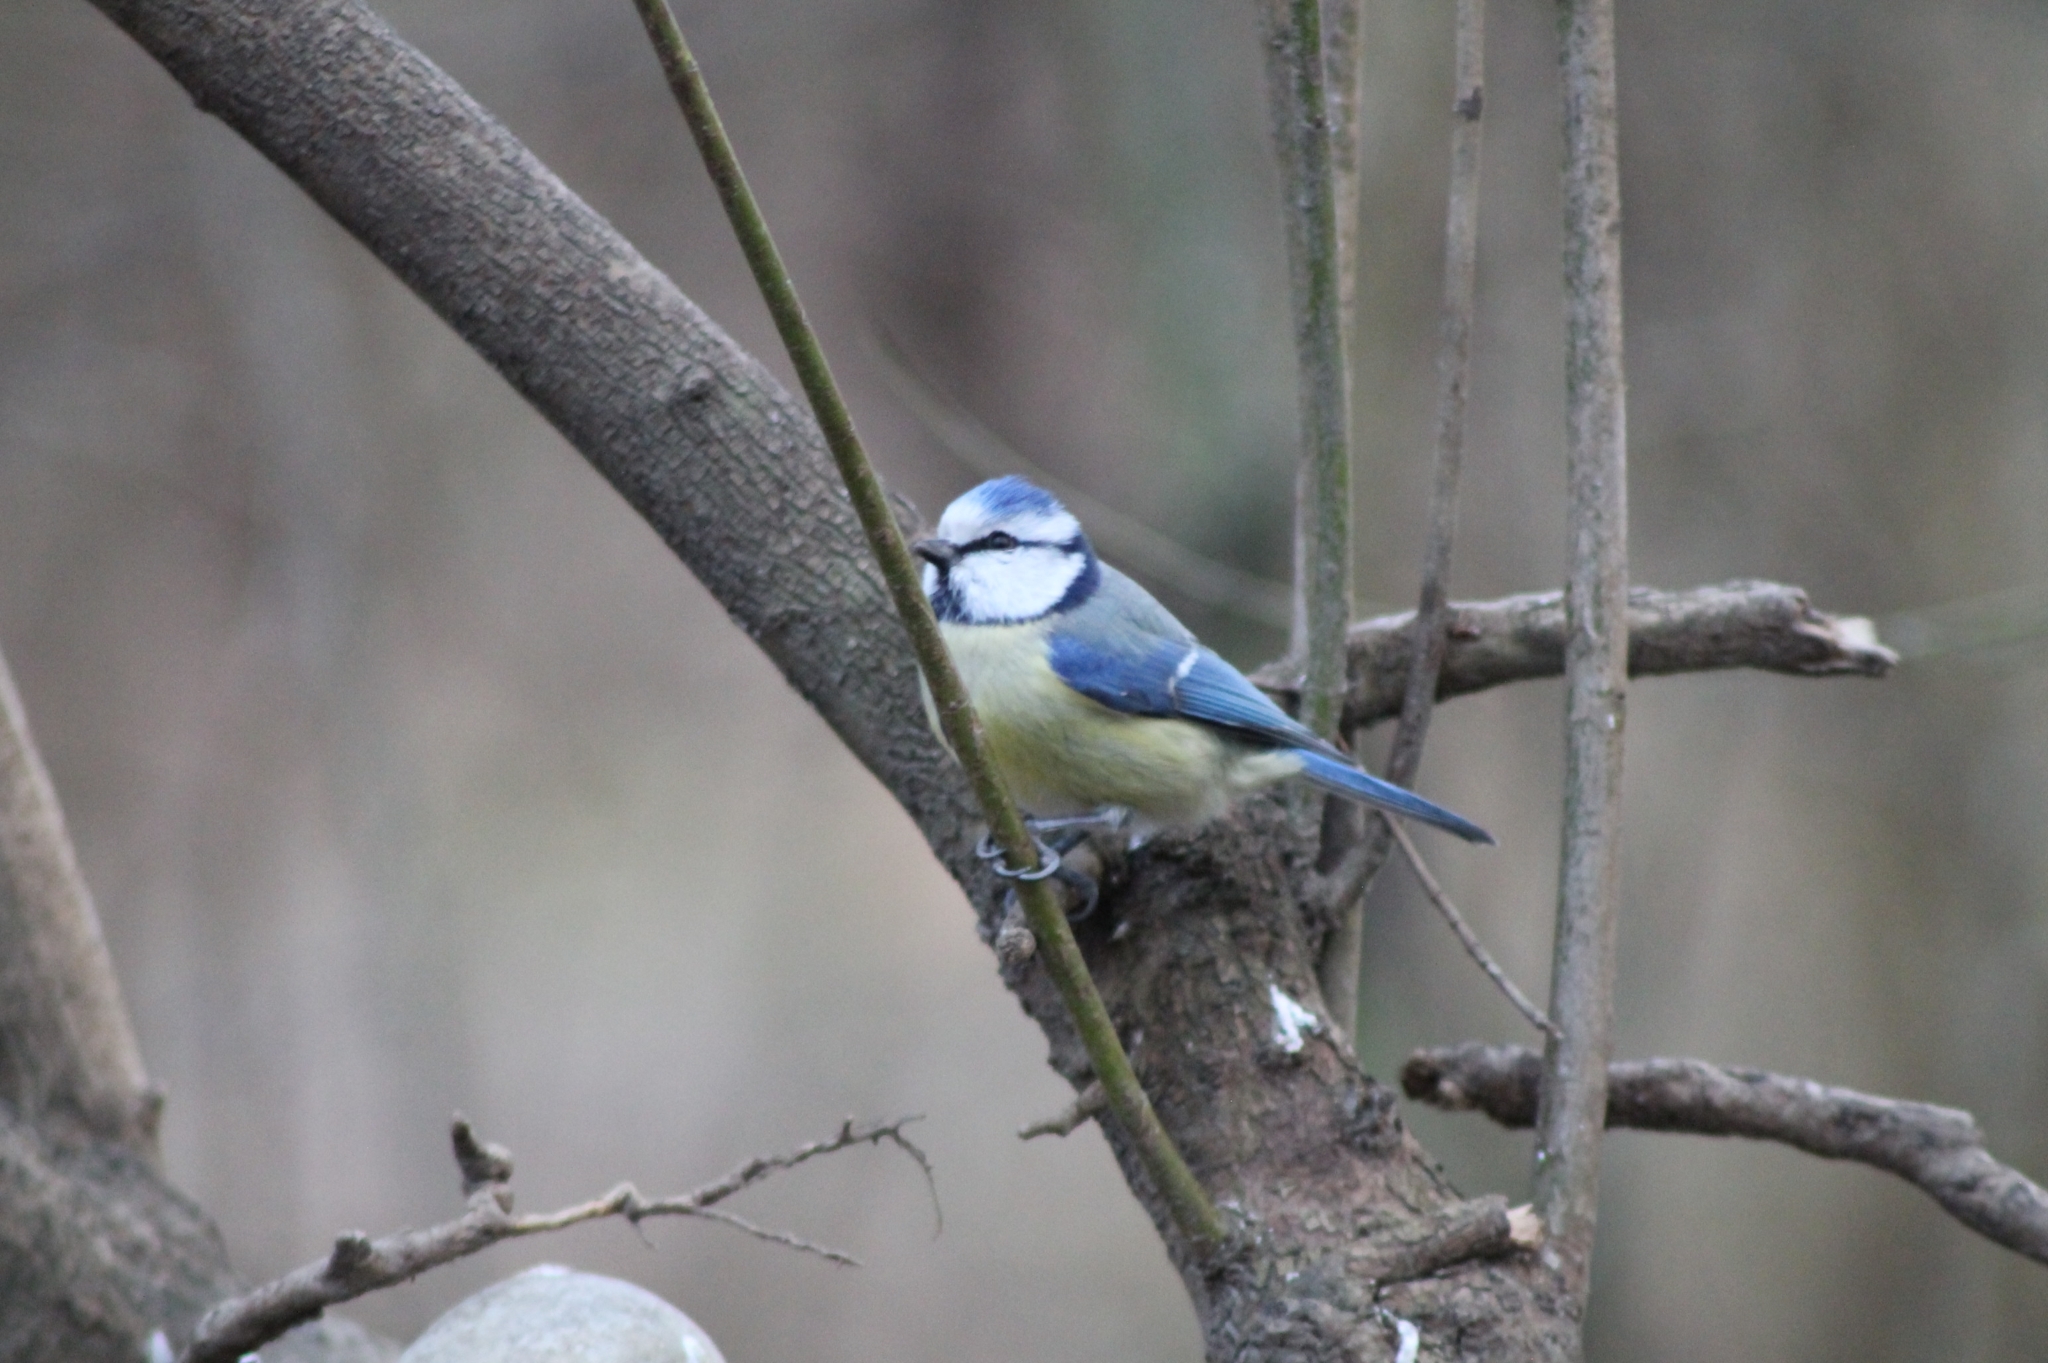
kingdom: Animalia
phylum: Chordata
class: Aves
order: Passeriformes
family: Paridae
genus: Cyanistes
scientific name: Cyanistes caeruleus
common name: Eurasian blue tit
